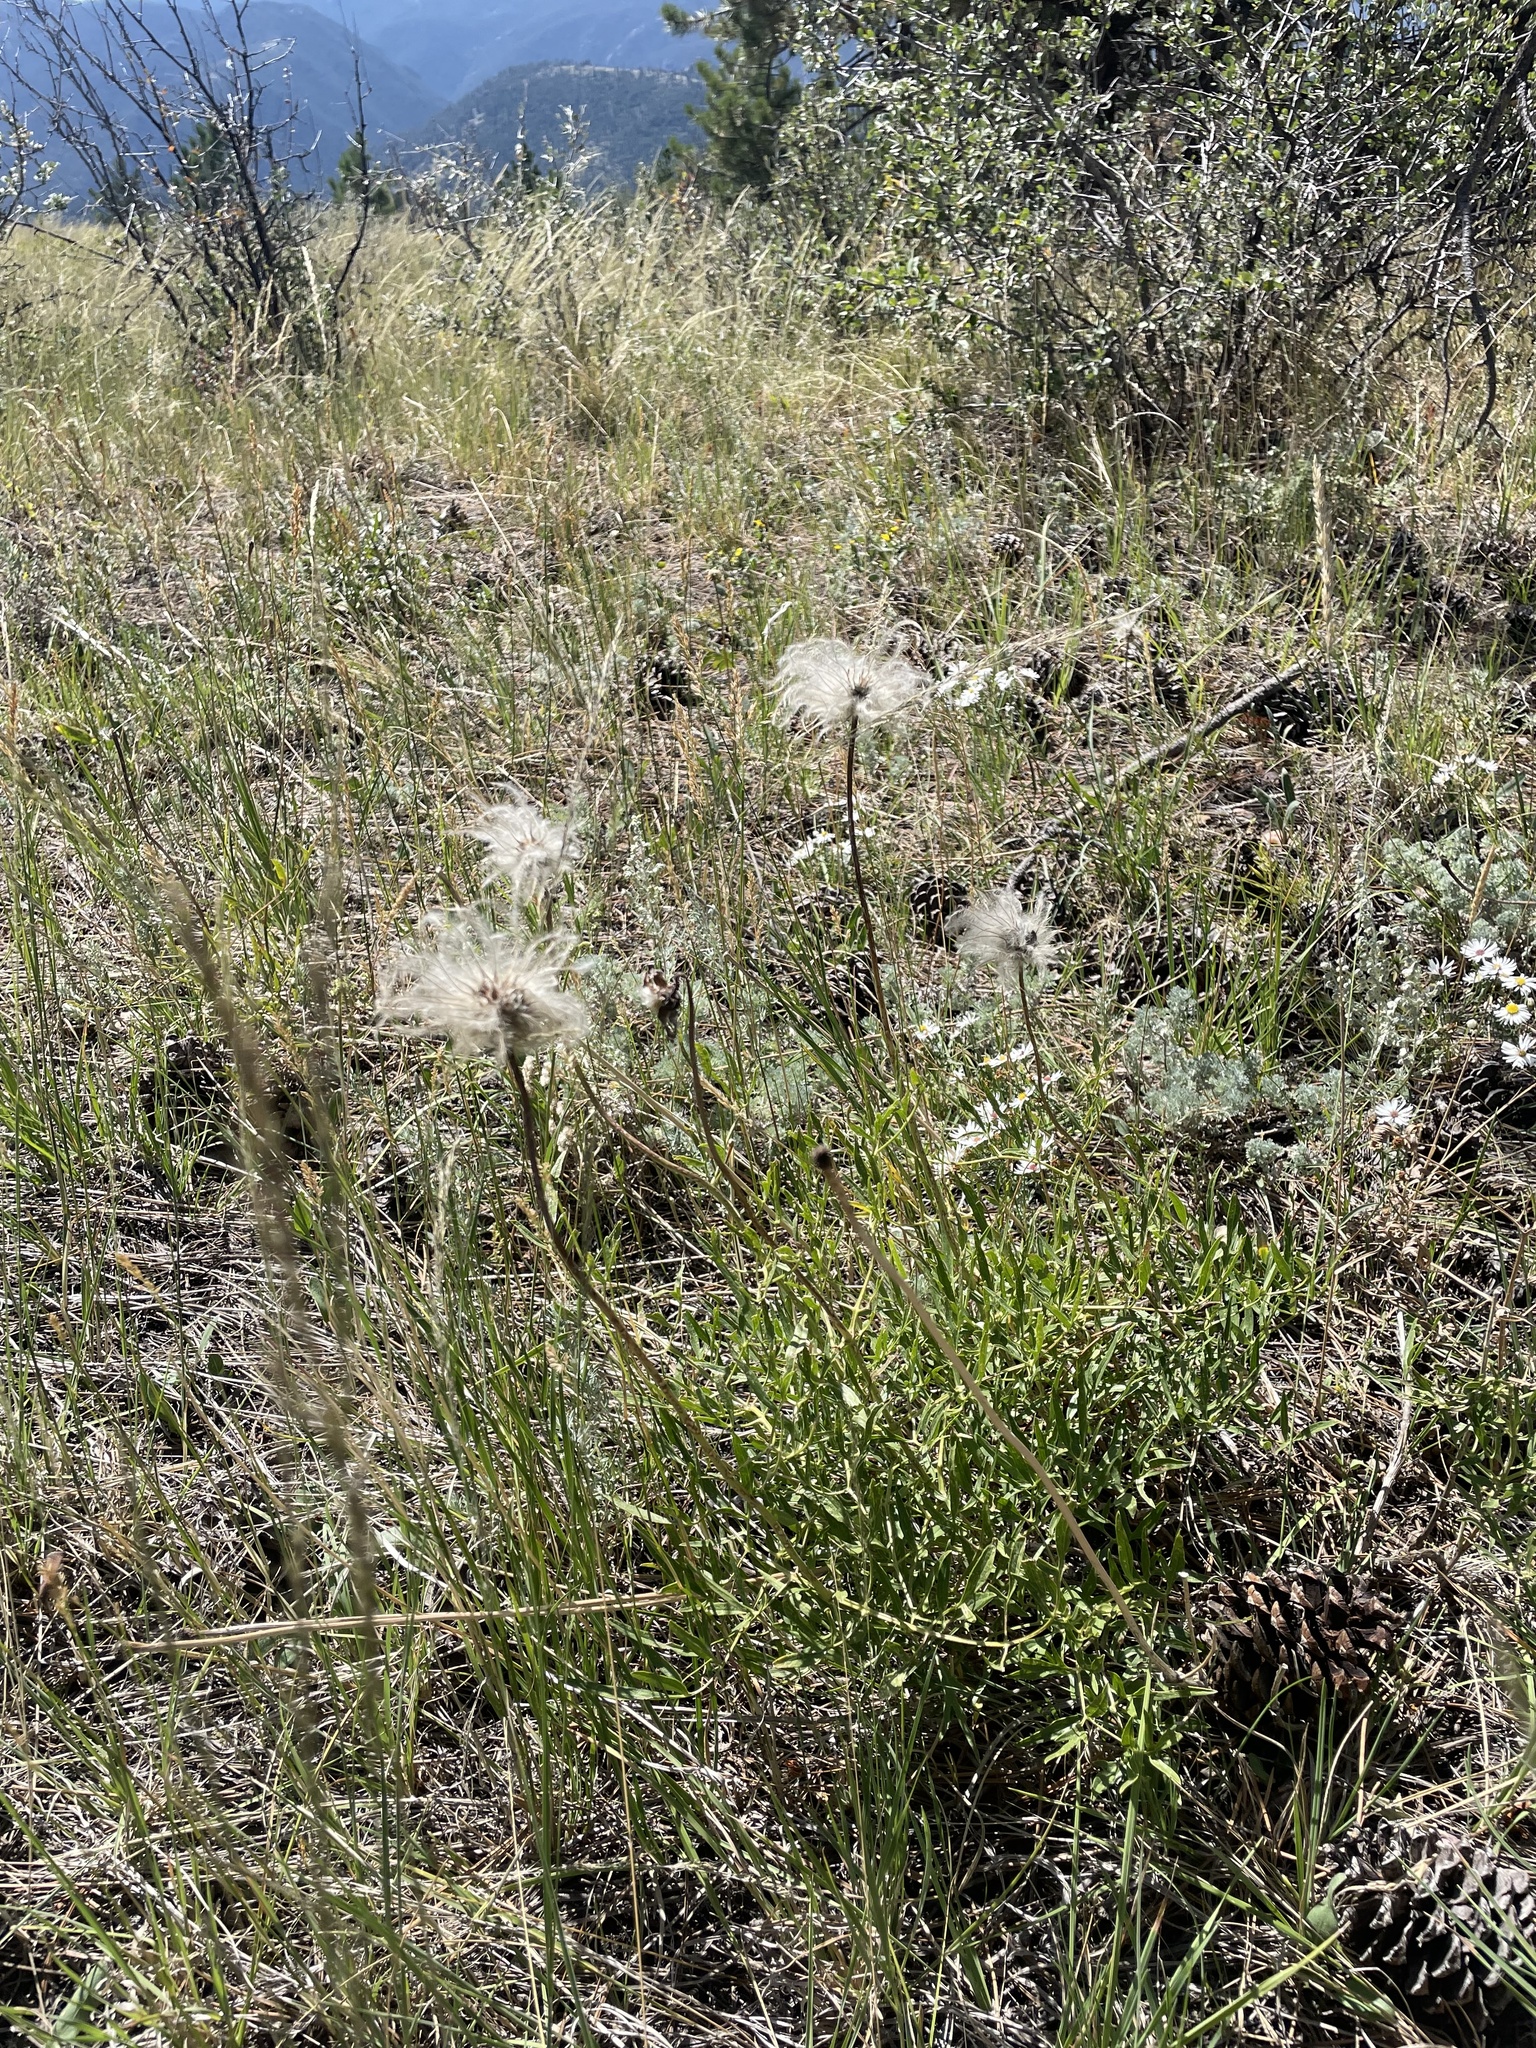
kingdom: Plantae
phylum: Tracheophyta
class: Magnoliopsida
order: Ranunculales
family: Ranunculaceae
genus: Clematis
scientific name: Clematis hirsutissima
